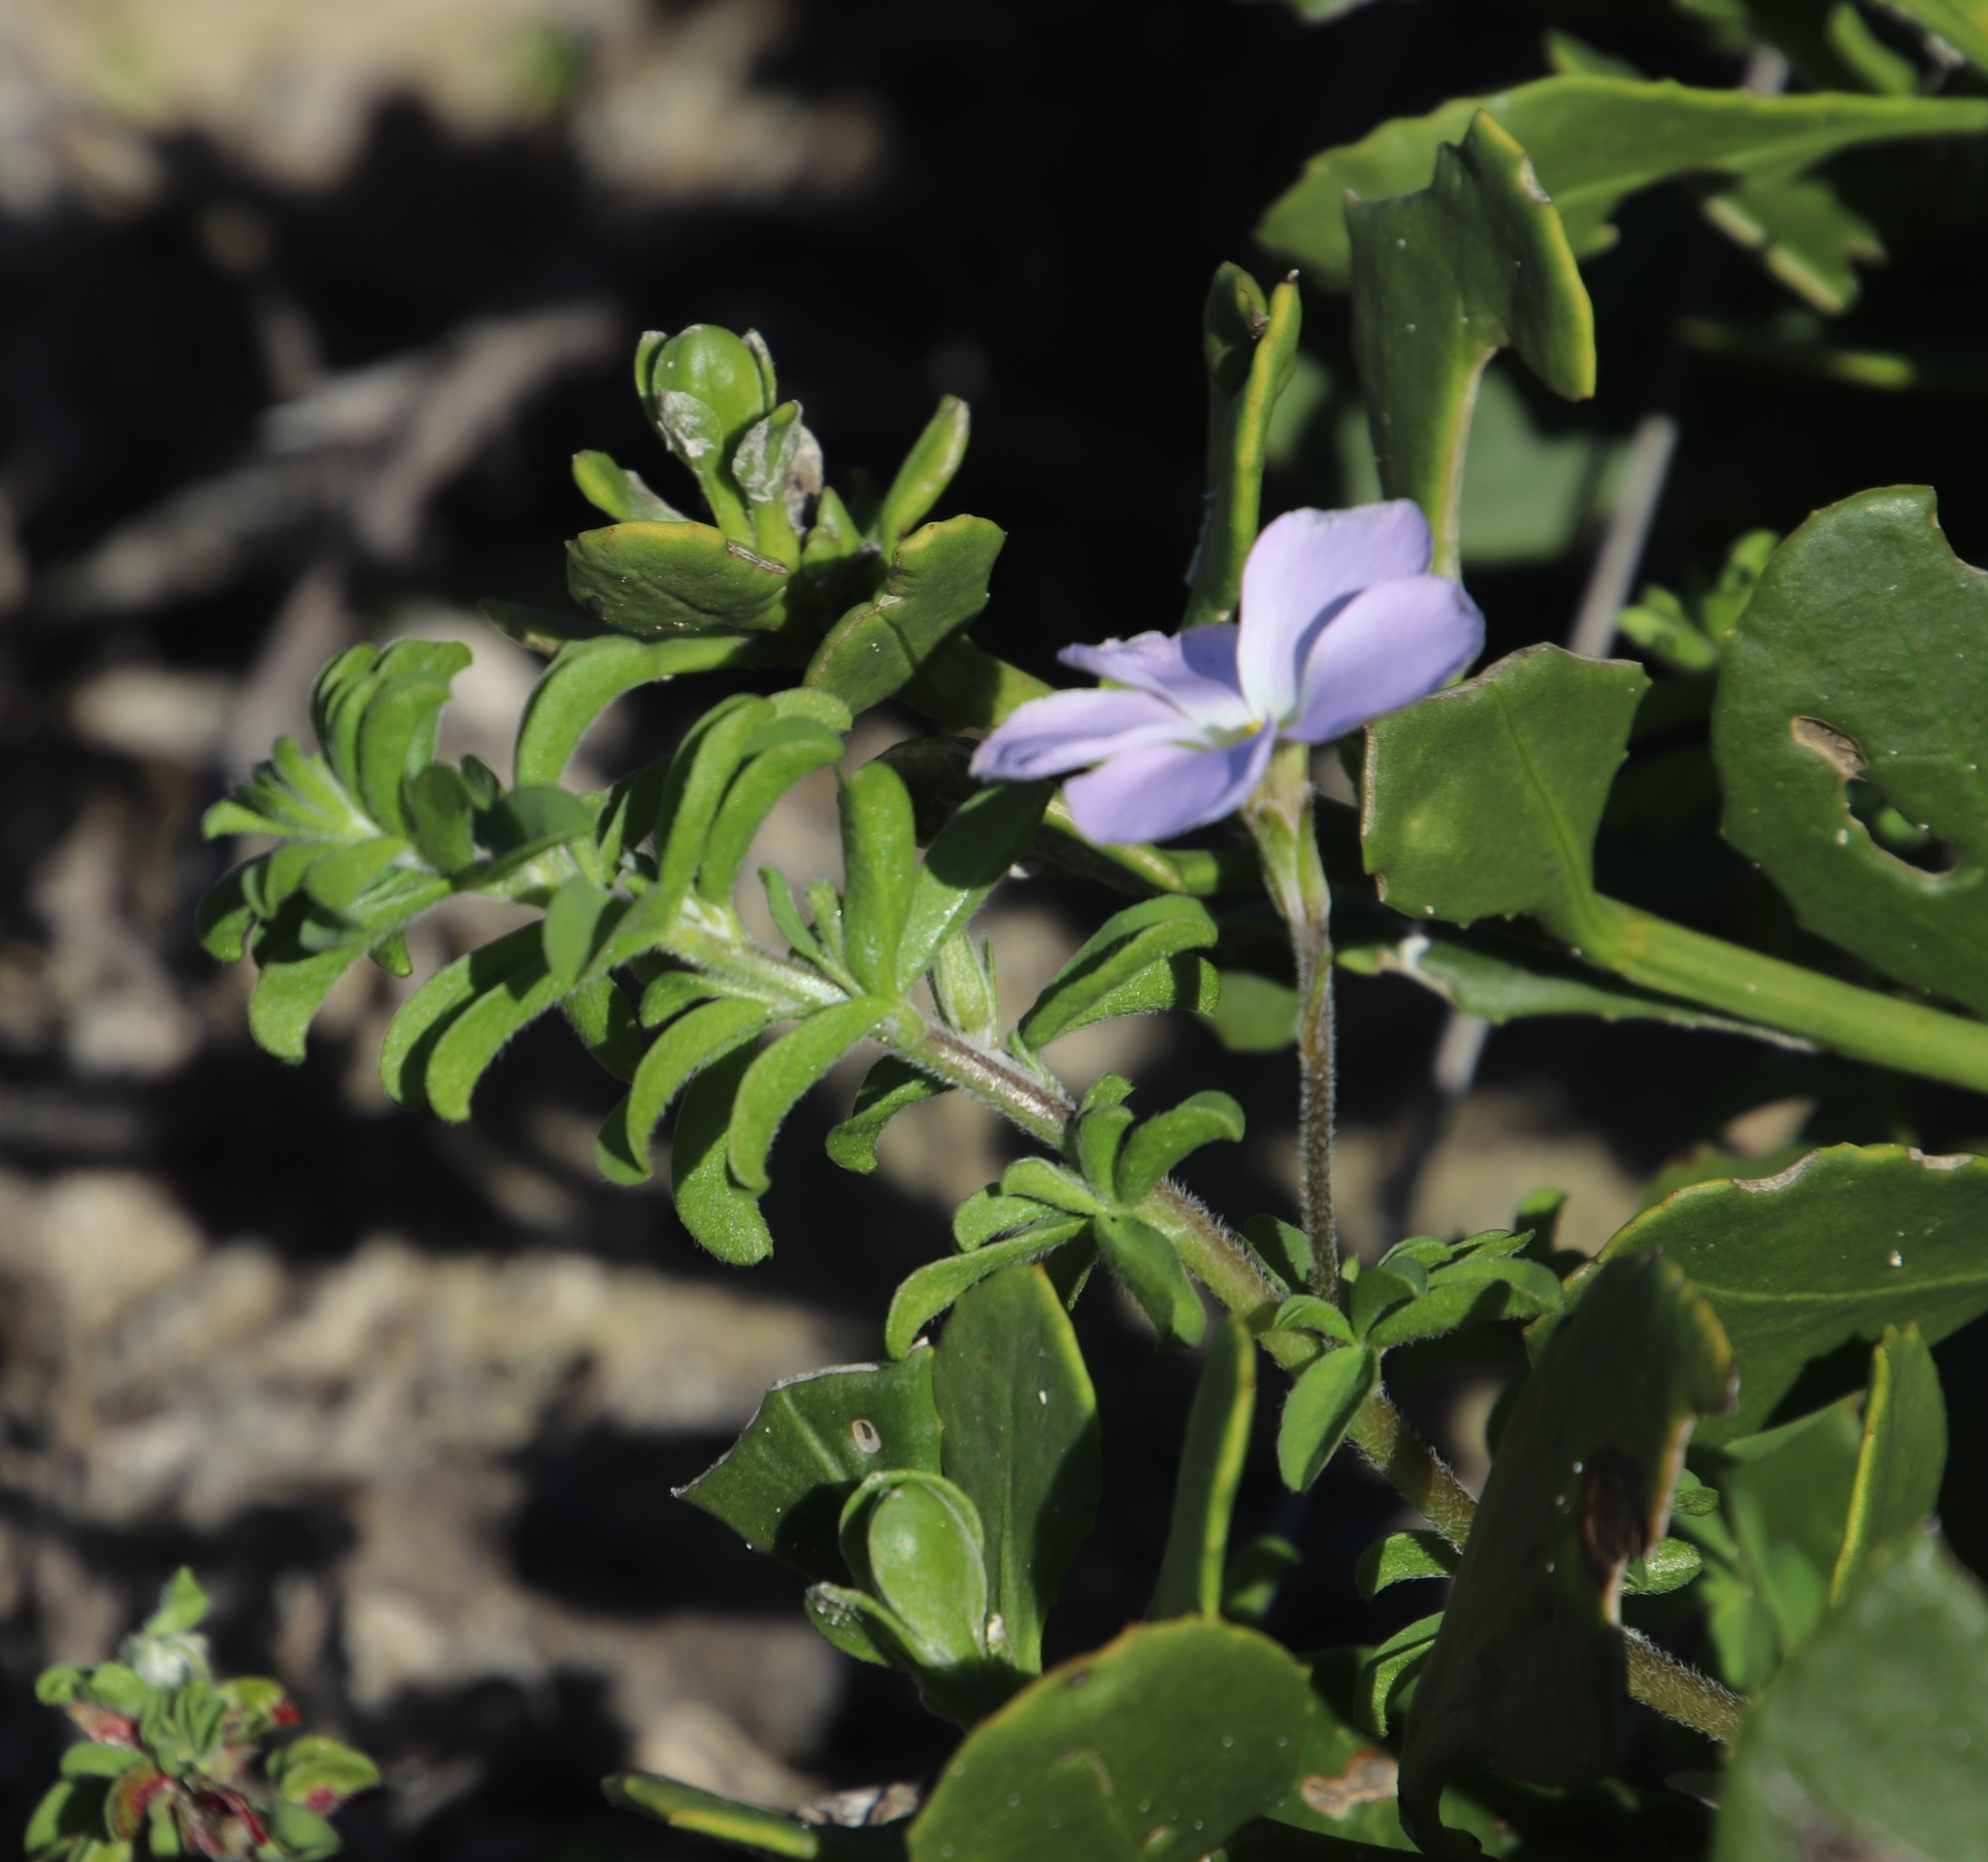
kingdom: Plantae
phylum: Tracheophyta
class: Magnoliopsida
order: Oxalidales
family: Oxalidaceae
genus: Oxalis
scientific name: Oxalis hirta
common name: Tropical woodsorrel
